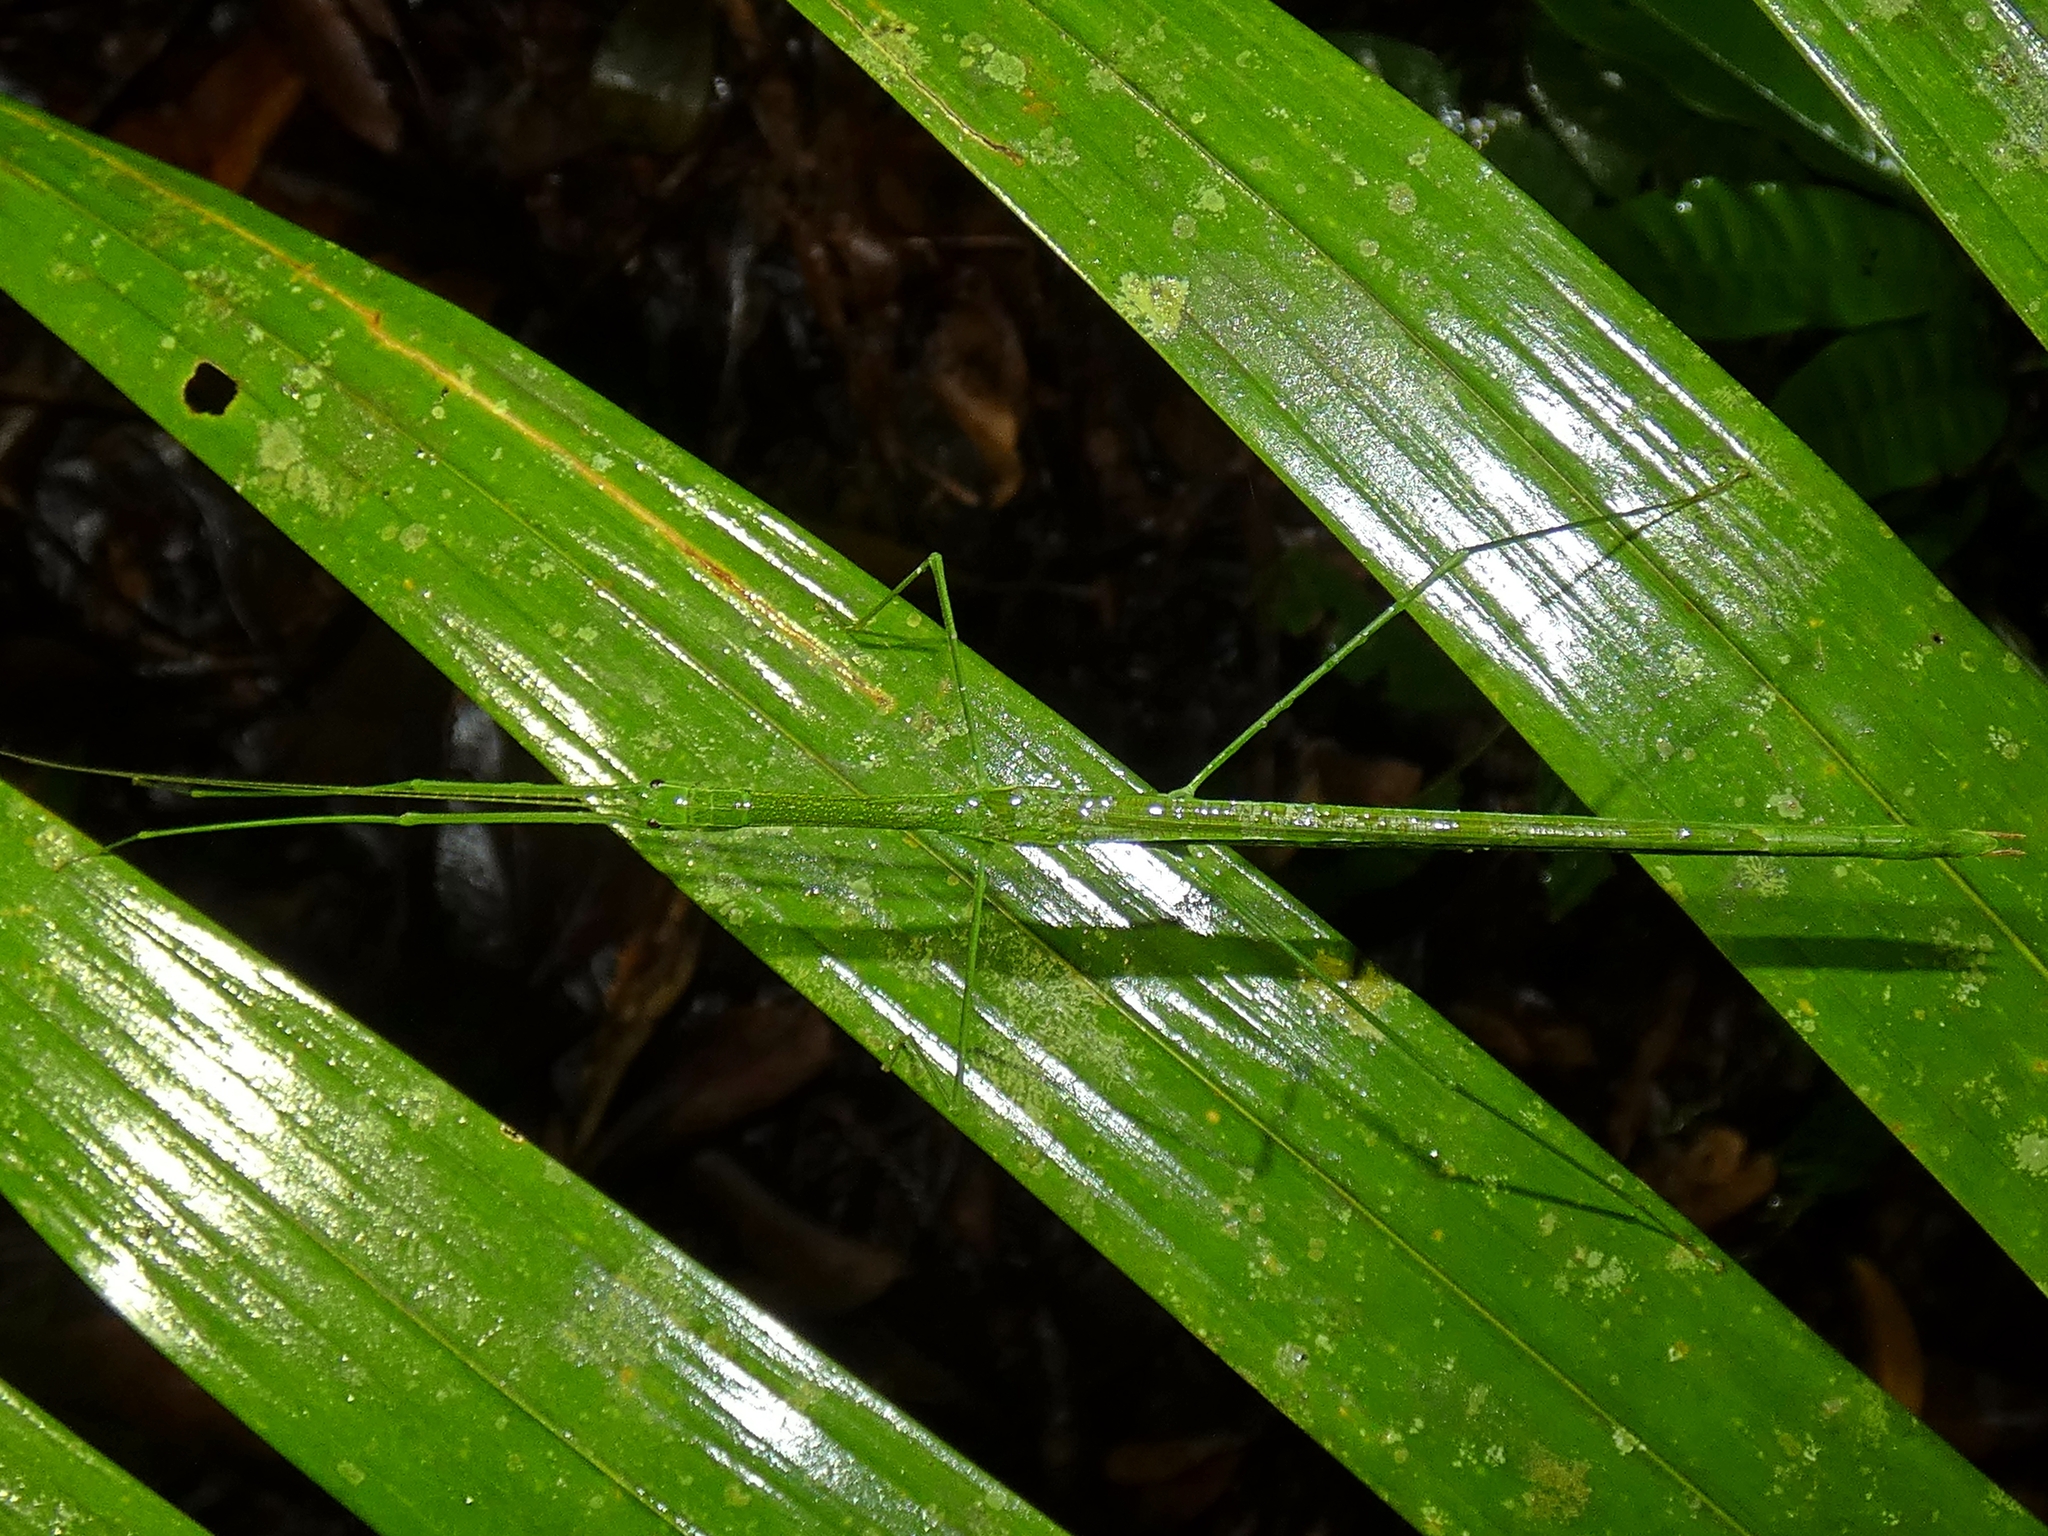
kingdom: Animalia
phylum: Arthropoda
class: Insecta
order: Phasmida
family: Lonchodidae
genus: Sipyloidea
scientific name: Sipyloidea rentzi
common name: Rentz's sipyloidea stick-insect
